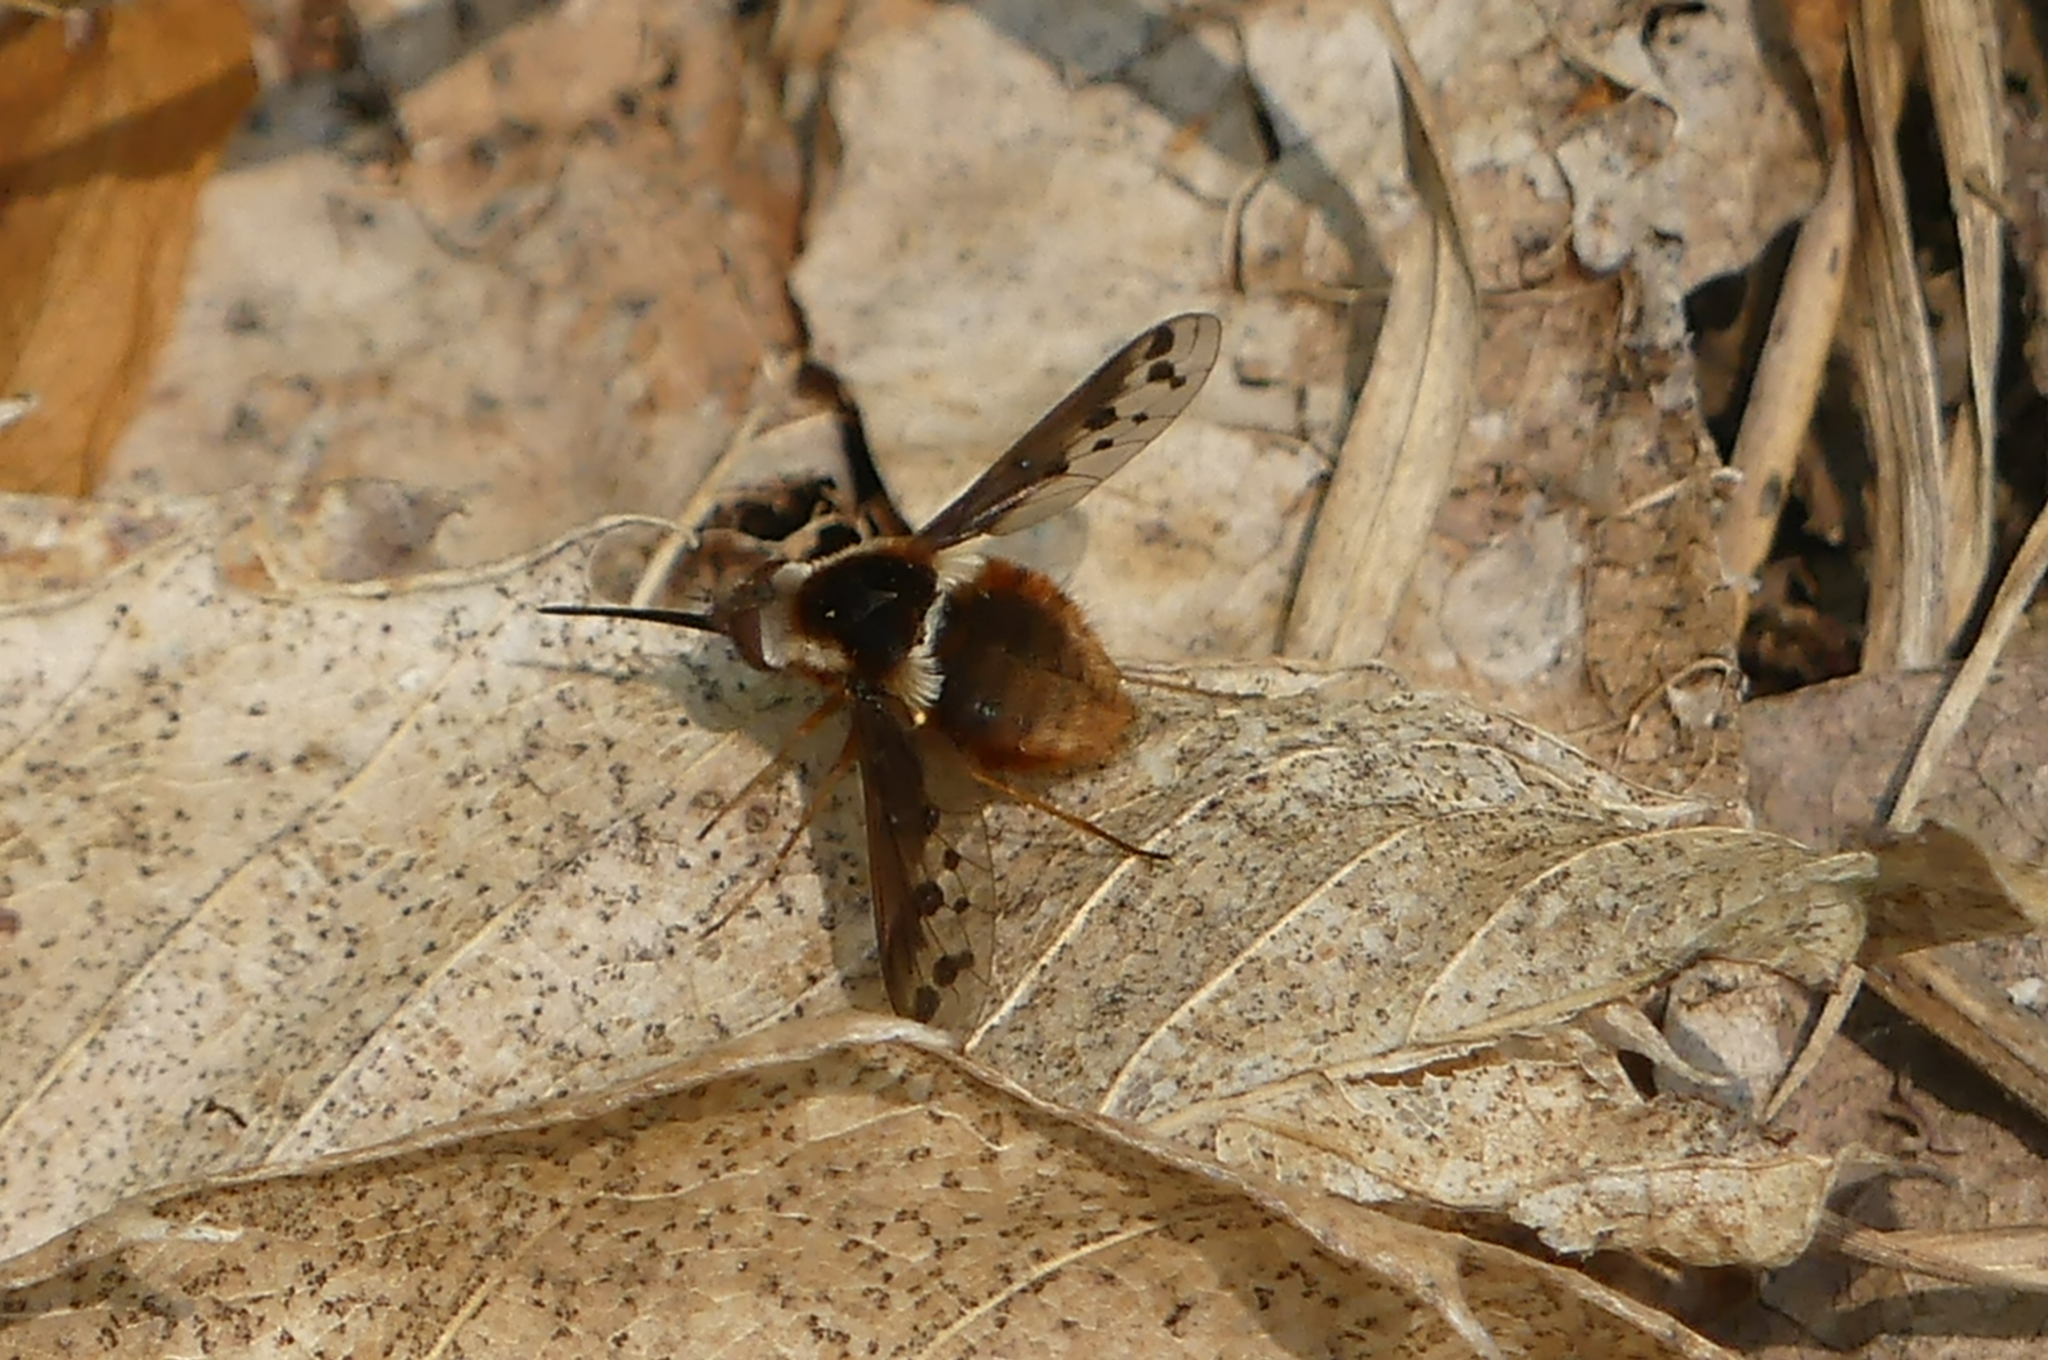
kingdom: Animalia
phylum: Arthropoda
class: Insecta
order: Diptera
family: Bombyliidae
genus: Bombylius
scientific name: Bombylius pygmaeus
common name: Pygmy bee fly
